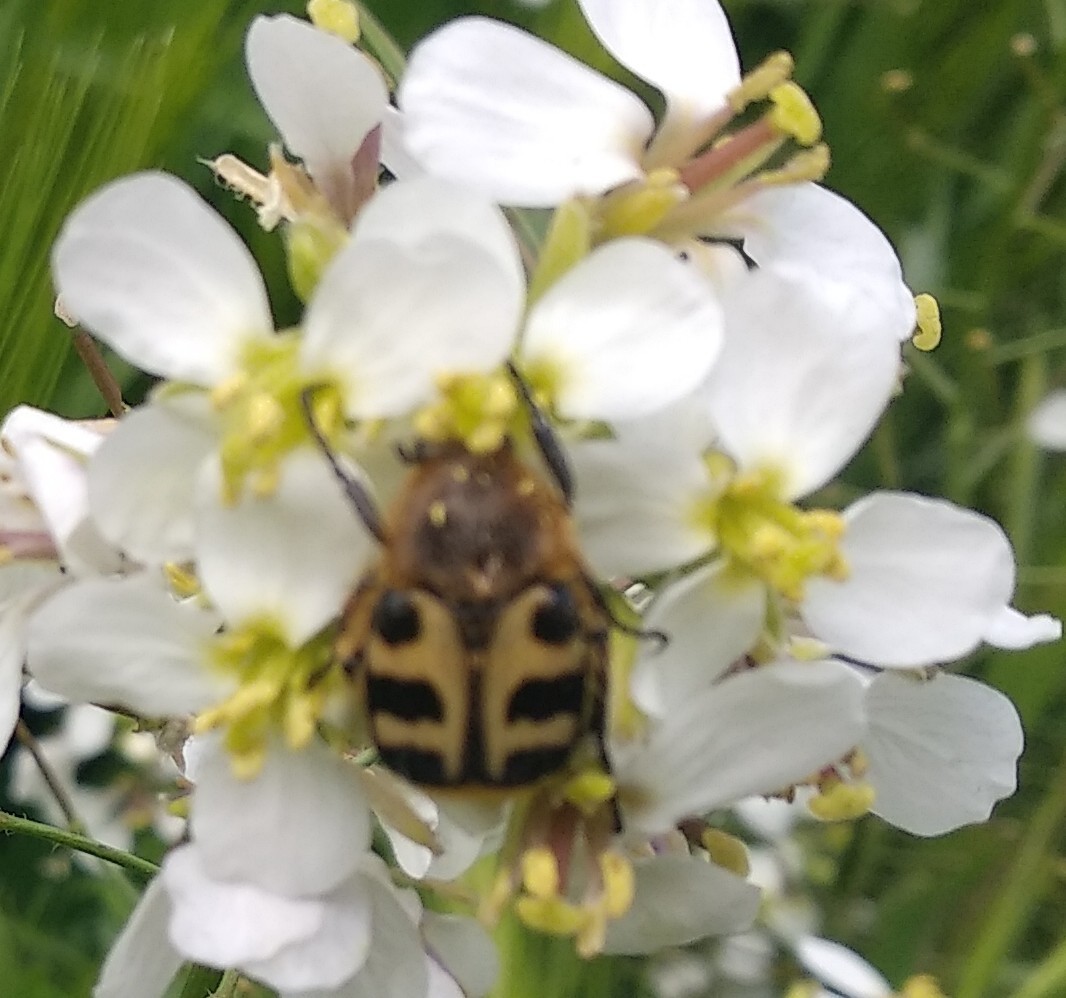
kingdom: Animalia
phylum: Arthropoda
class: Insecta
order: Coleoptera
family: Scarabaeidae
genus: Trichius
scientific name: Trichius gallicus
